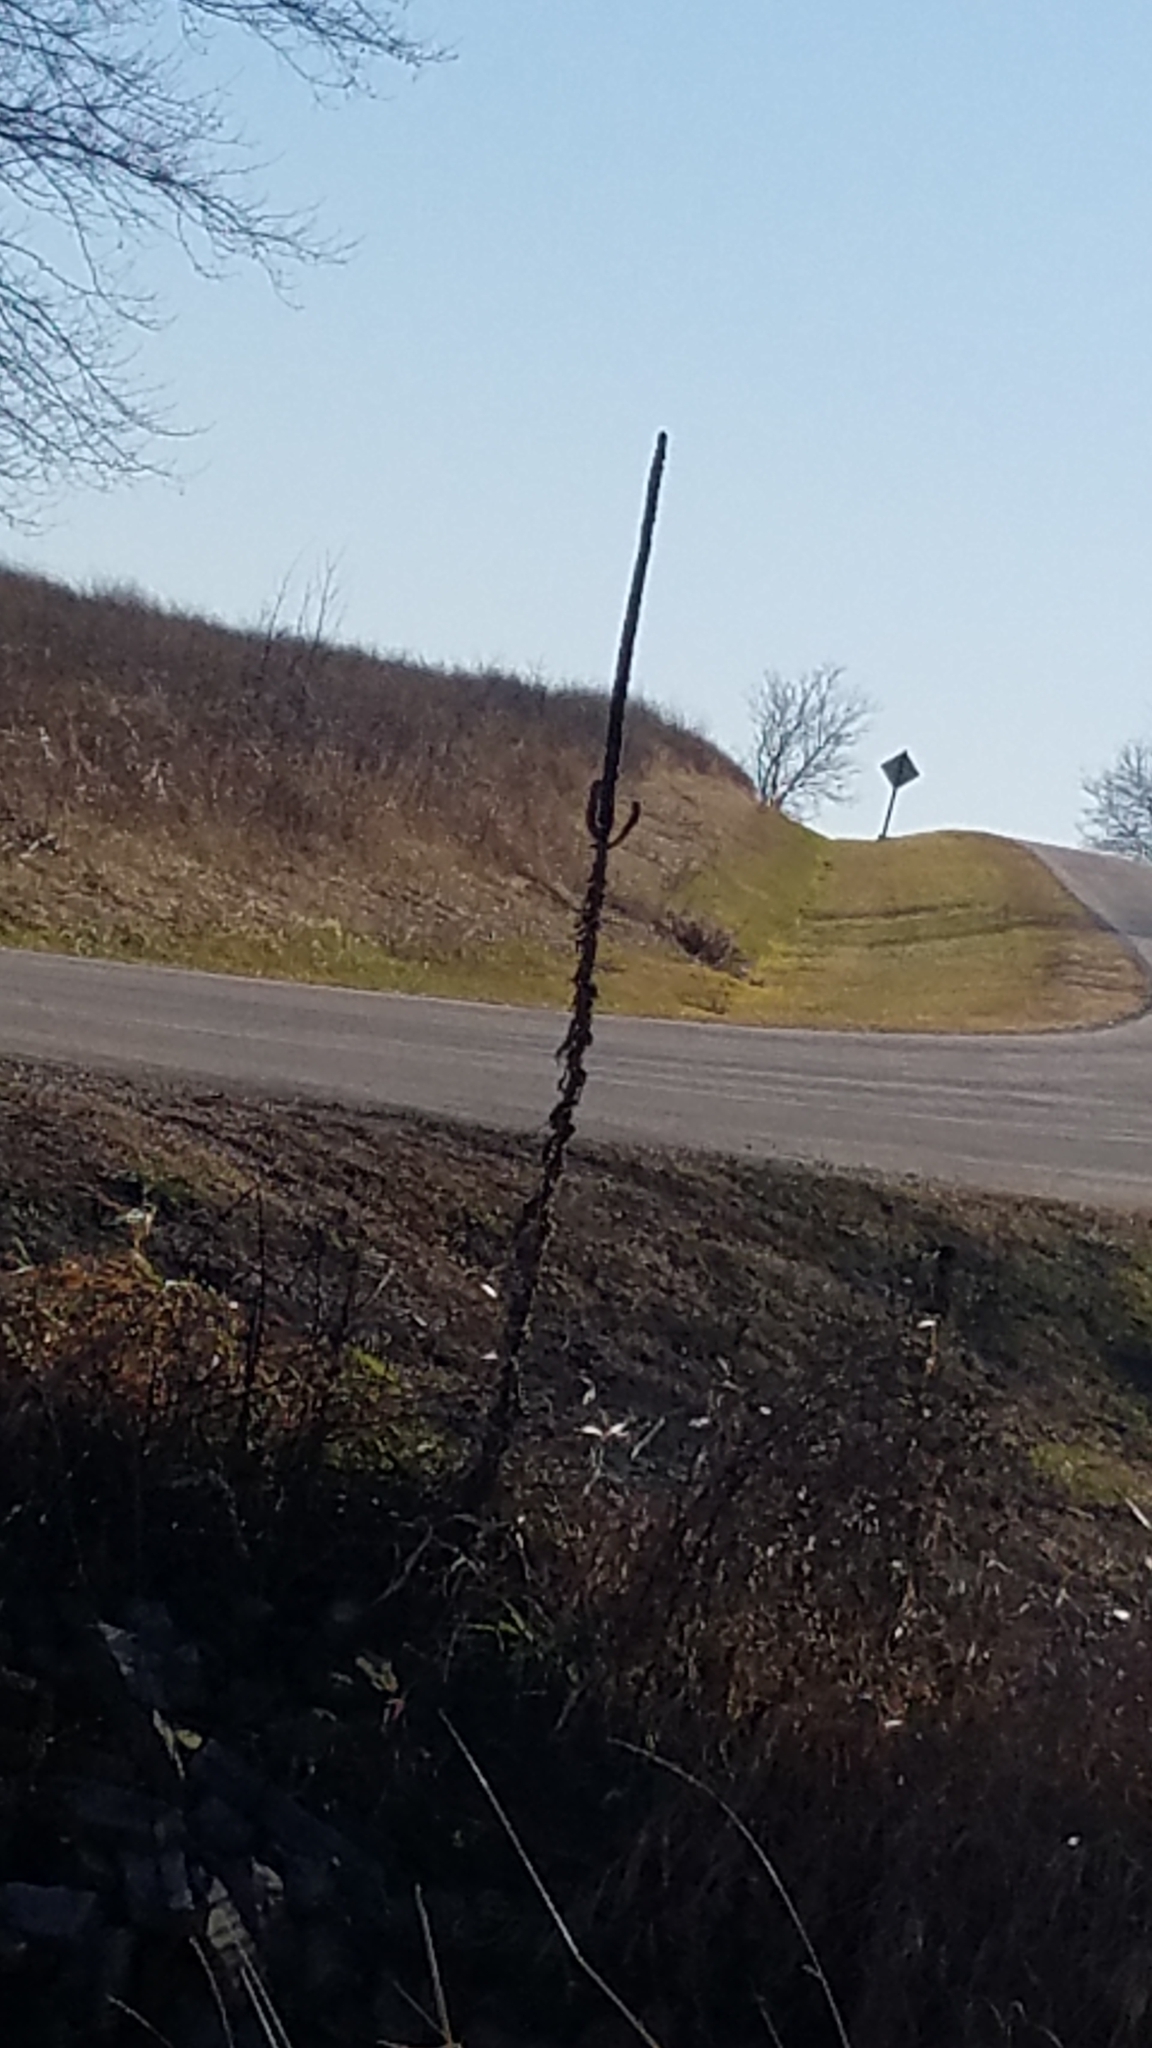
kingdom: Plantae
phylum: Tracheophyta
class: Magnoliopsida
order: Lamiales
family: Scrophulariaceae
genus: Verbascum
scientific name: Verbascum thapsus
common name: Common mullein
